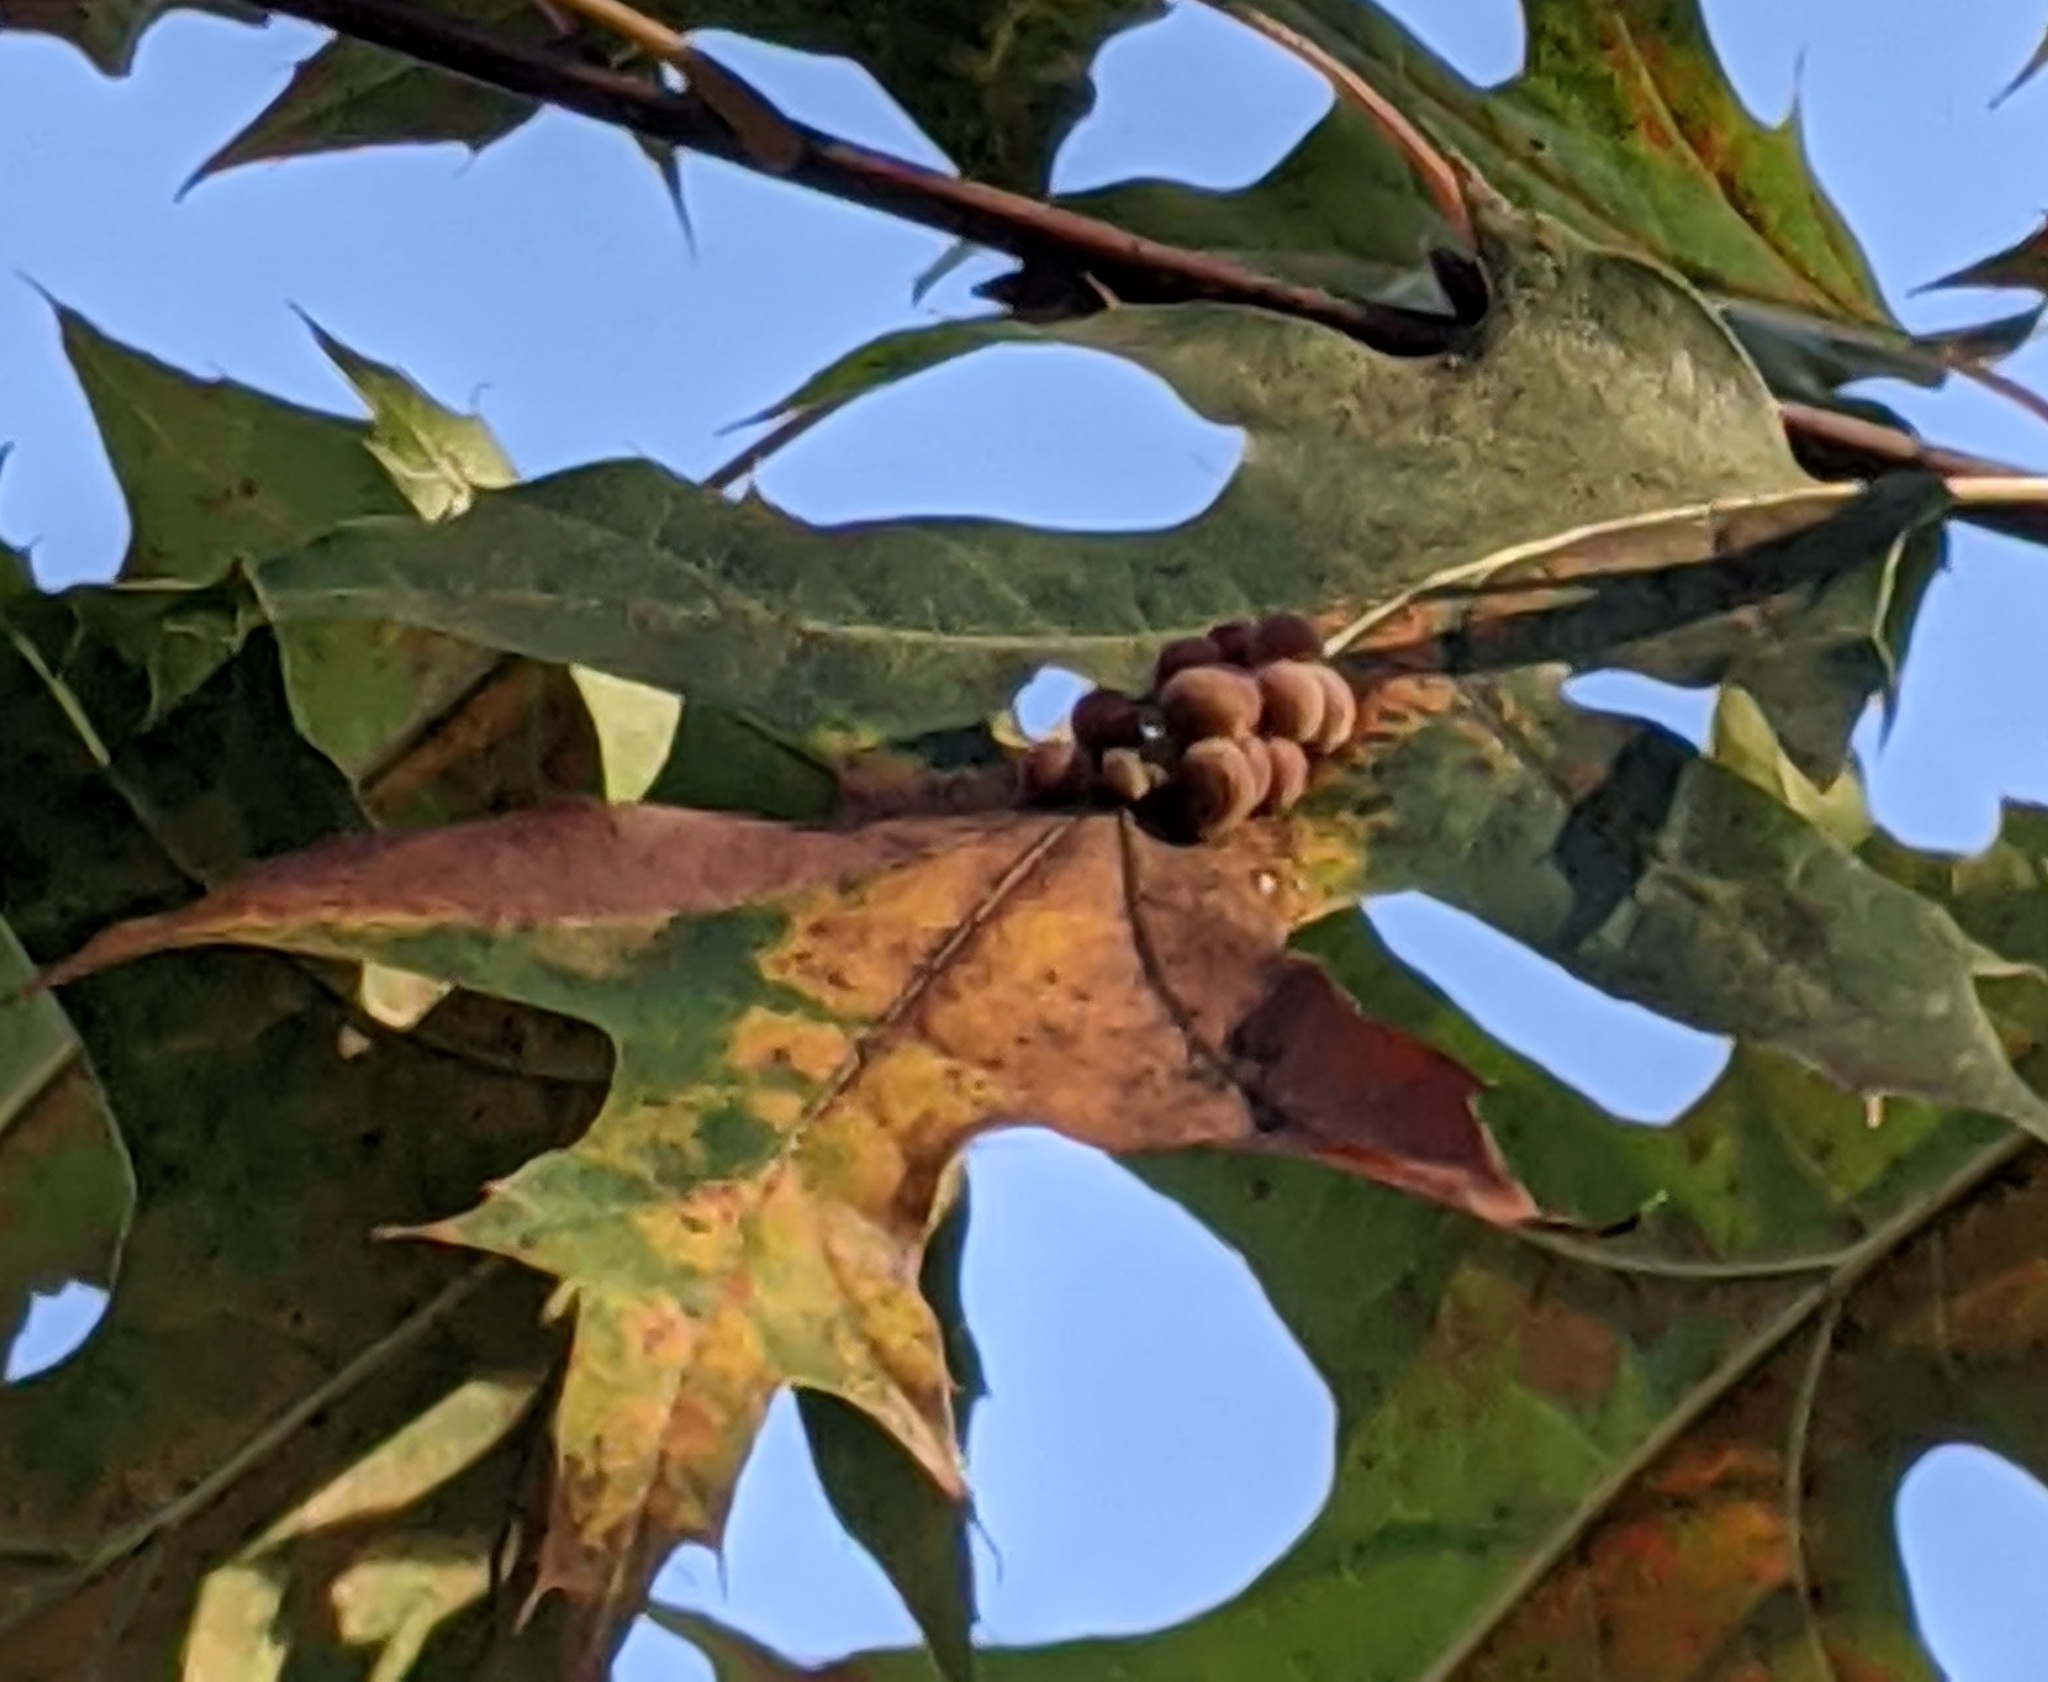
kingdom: Animalia
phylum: Arthropoda
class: Insecta
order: Hymenoptera
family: Cynipidae
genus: Callirhytis
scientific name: Callirhytis
